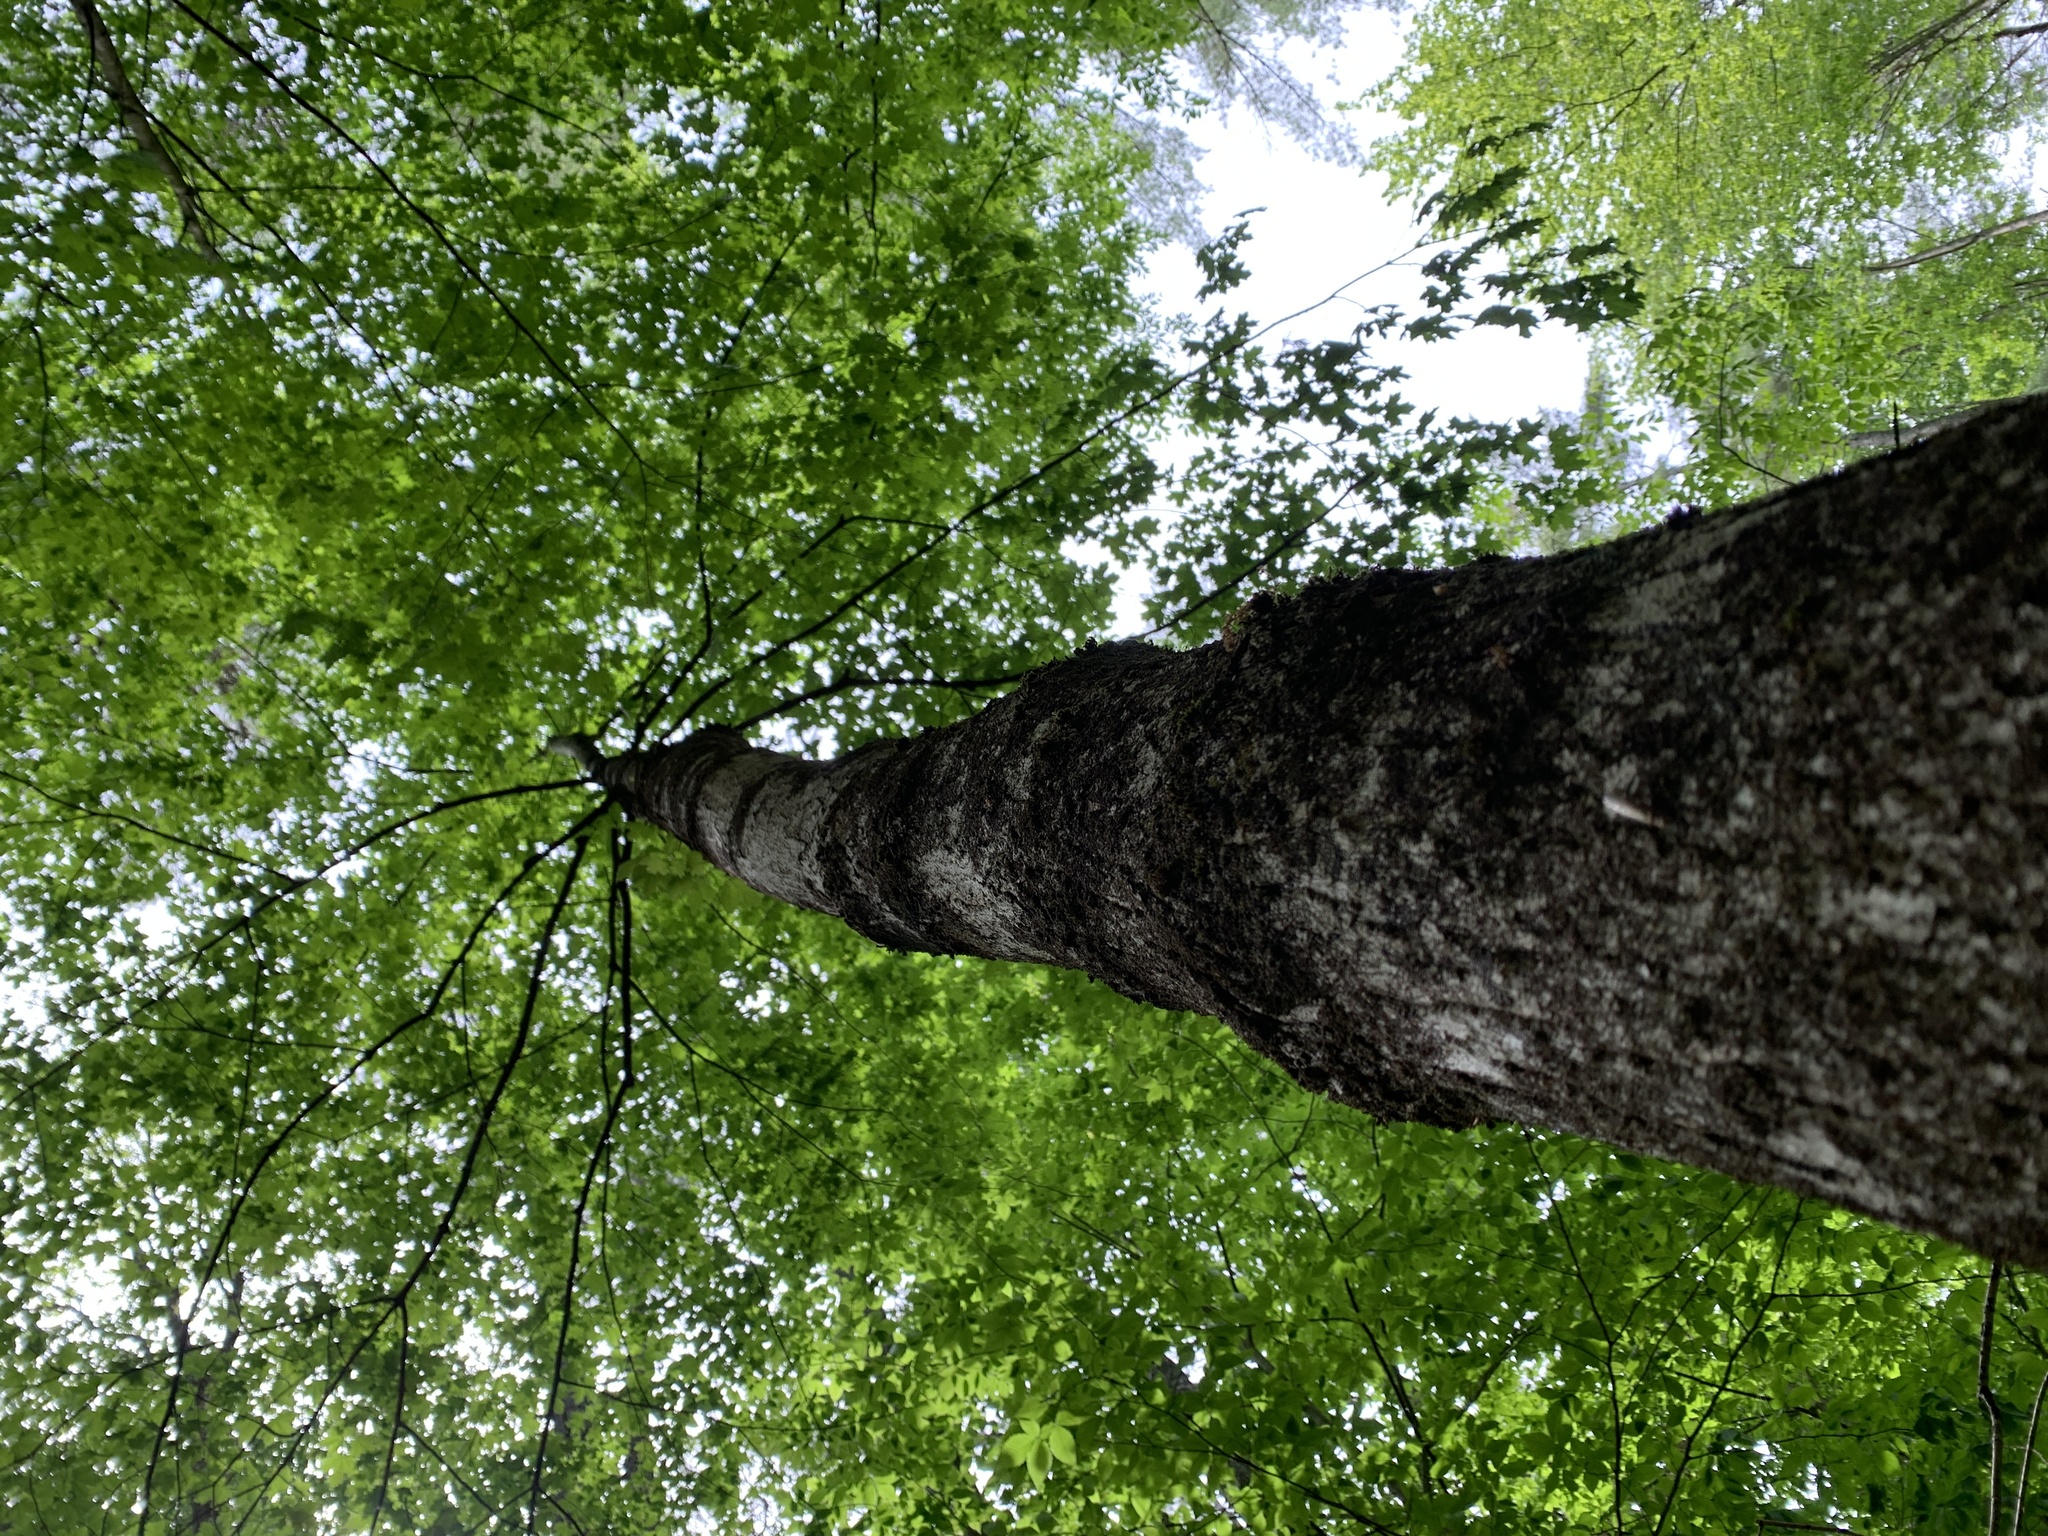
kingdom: Plantae
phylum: Tracheophyta
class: Magnoliopsida
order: Sapindales
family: Sapindaceae
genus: Acer
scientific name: Acer saccharum
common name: Sugar maple
